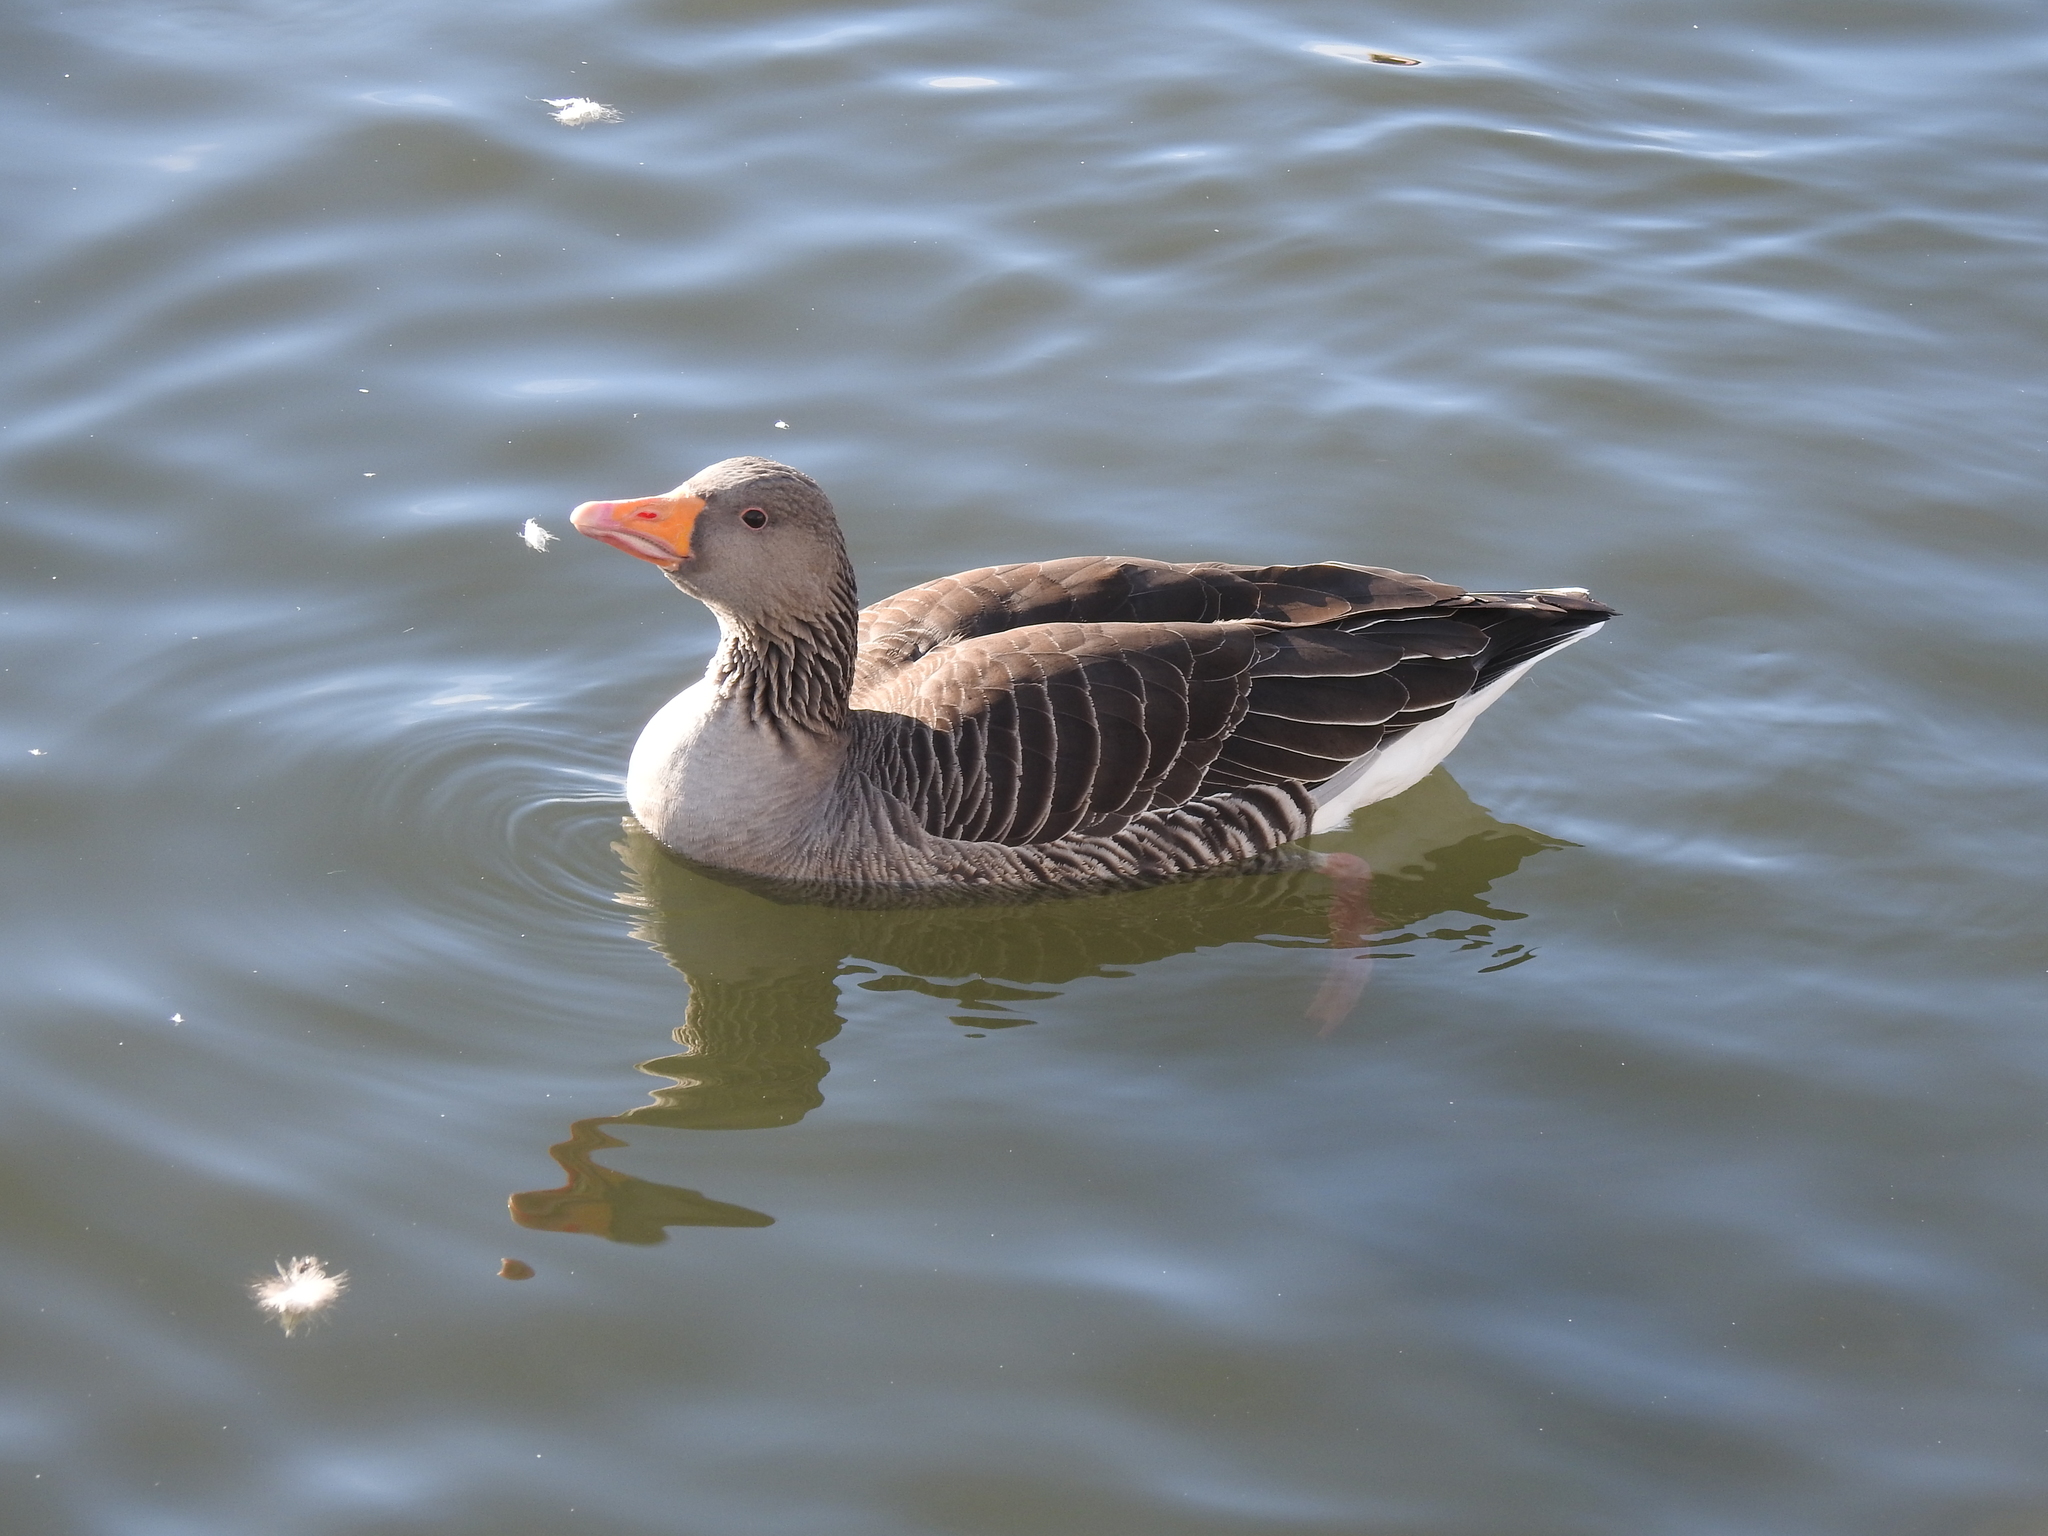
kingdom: Animalia
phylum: Chordata
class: Aves
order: Anseriformes
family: Anatidae
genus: Anser
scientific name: Anser anser
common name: Greylag goose
